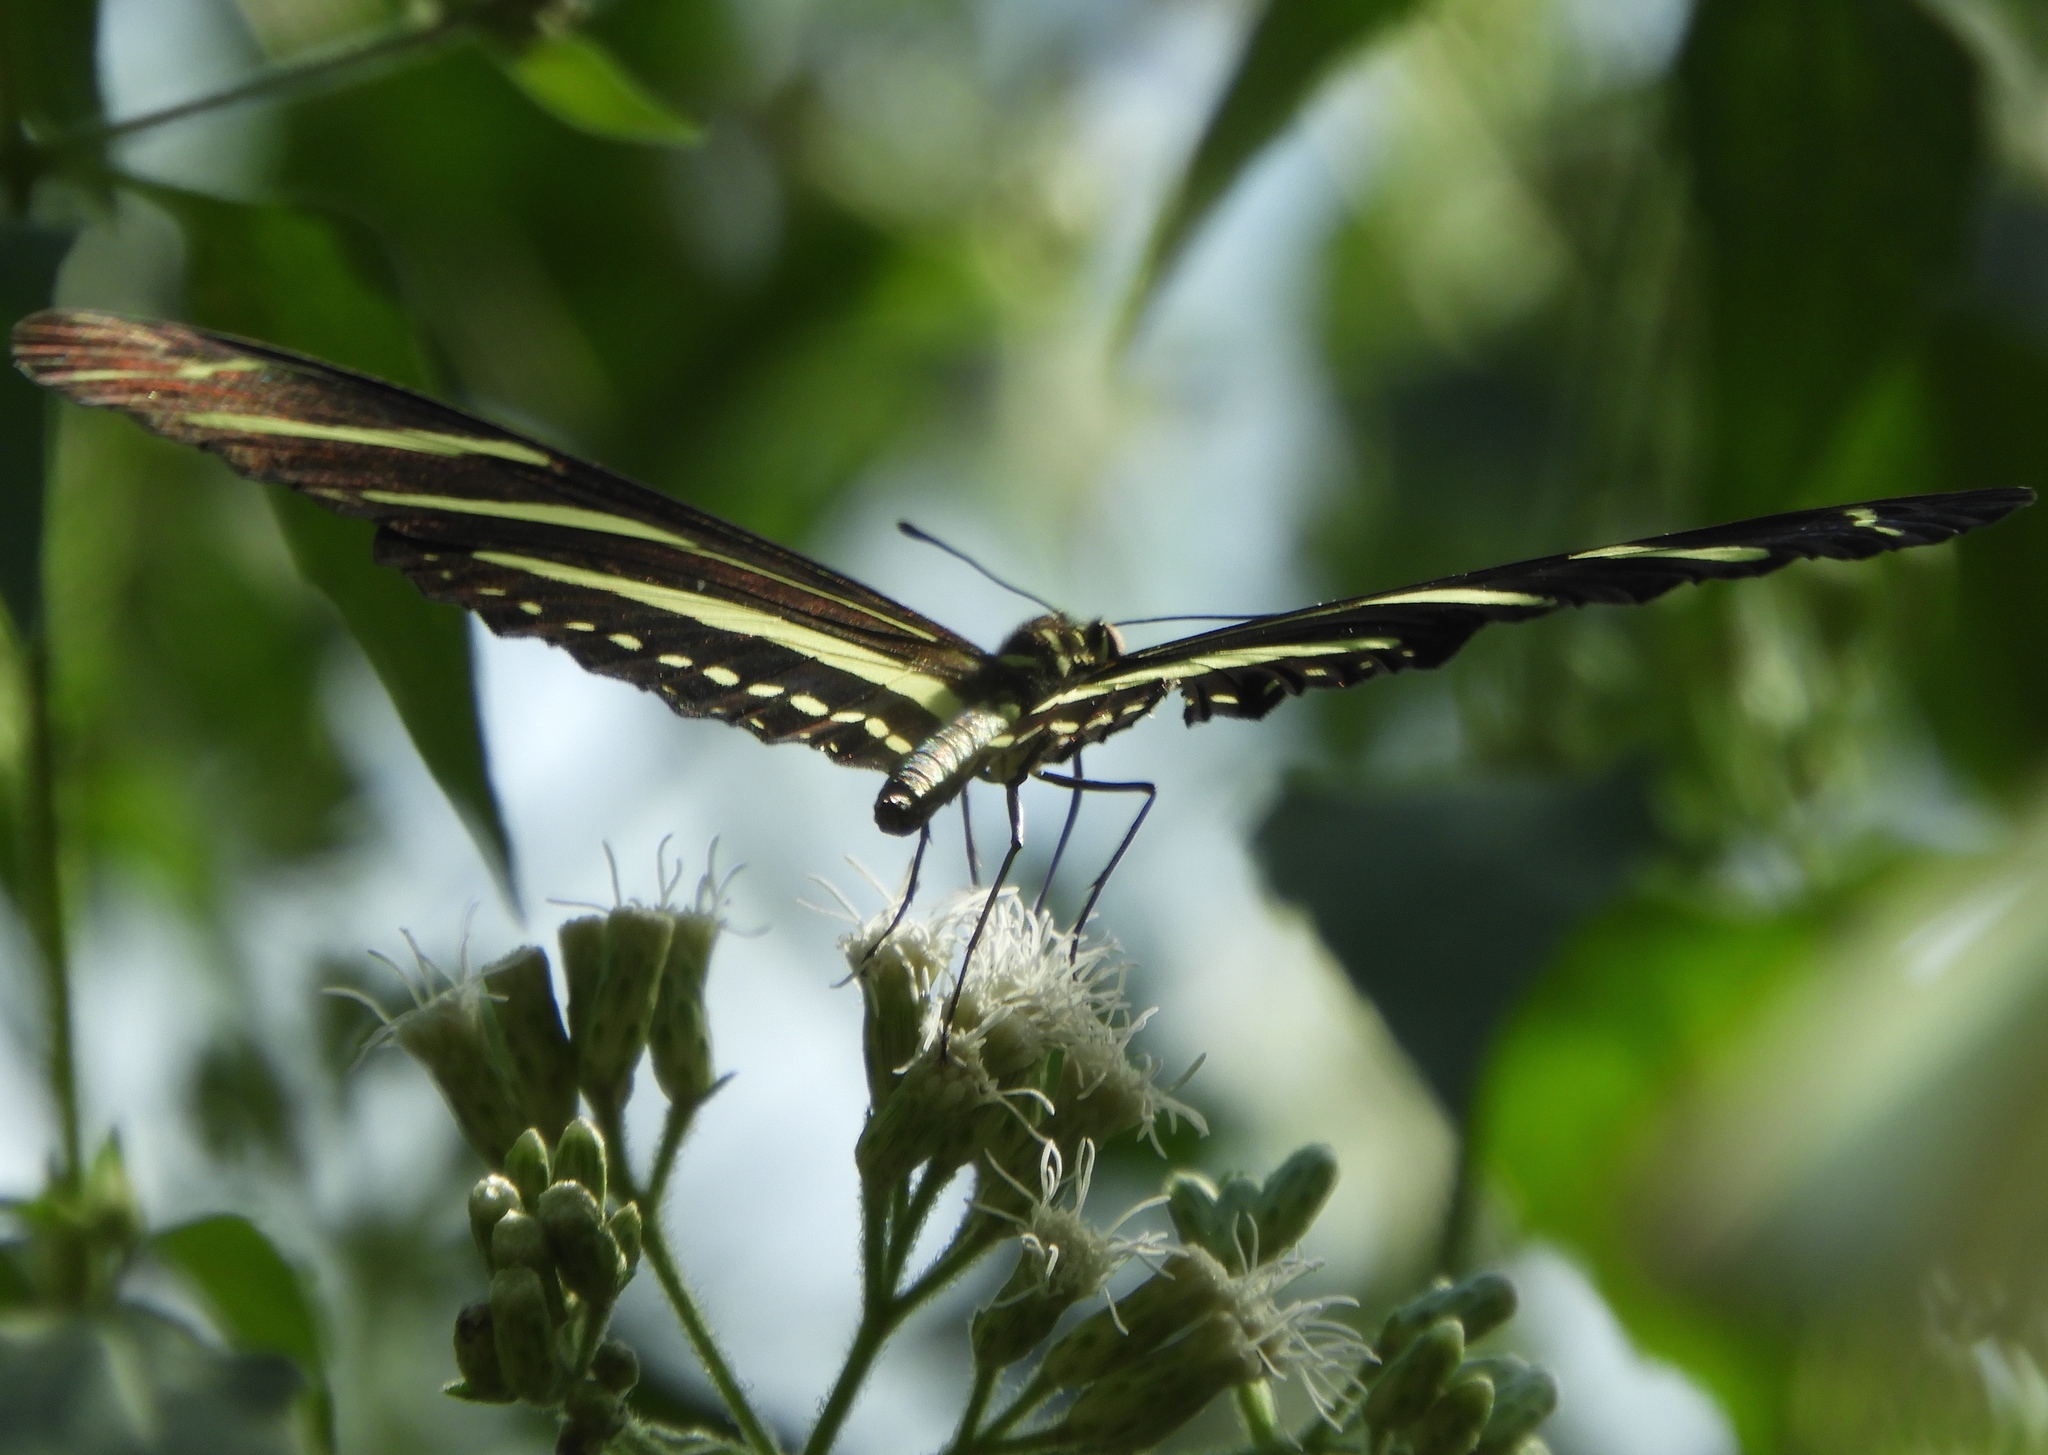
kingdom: Animalia
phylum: Arthropoda
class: Insecta
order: Lepidoptera
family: Nymphalidae
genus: Heliconius
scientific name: Heliconius charithonia
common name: Zebra long wing
